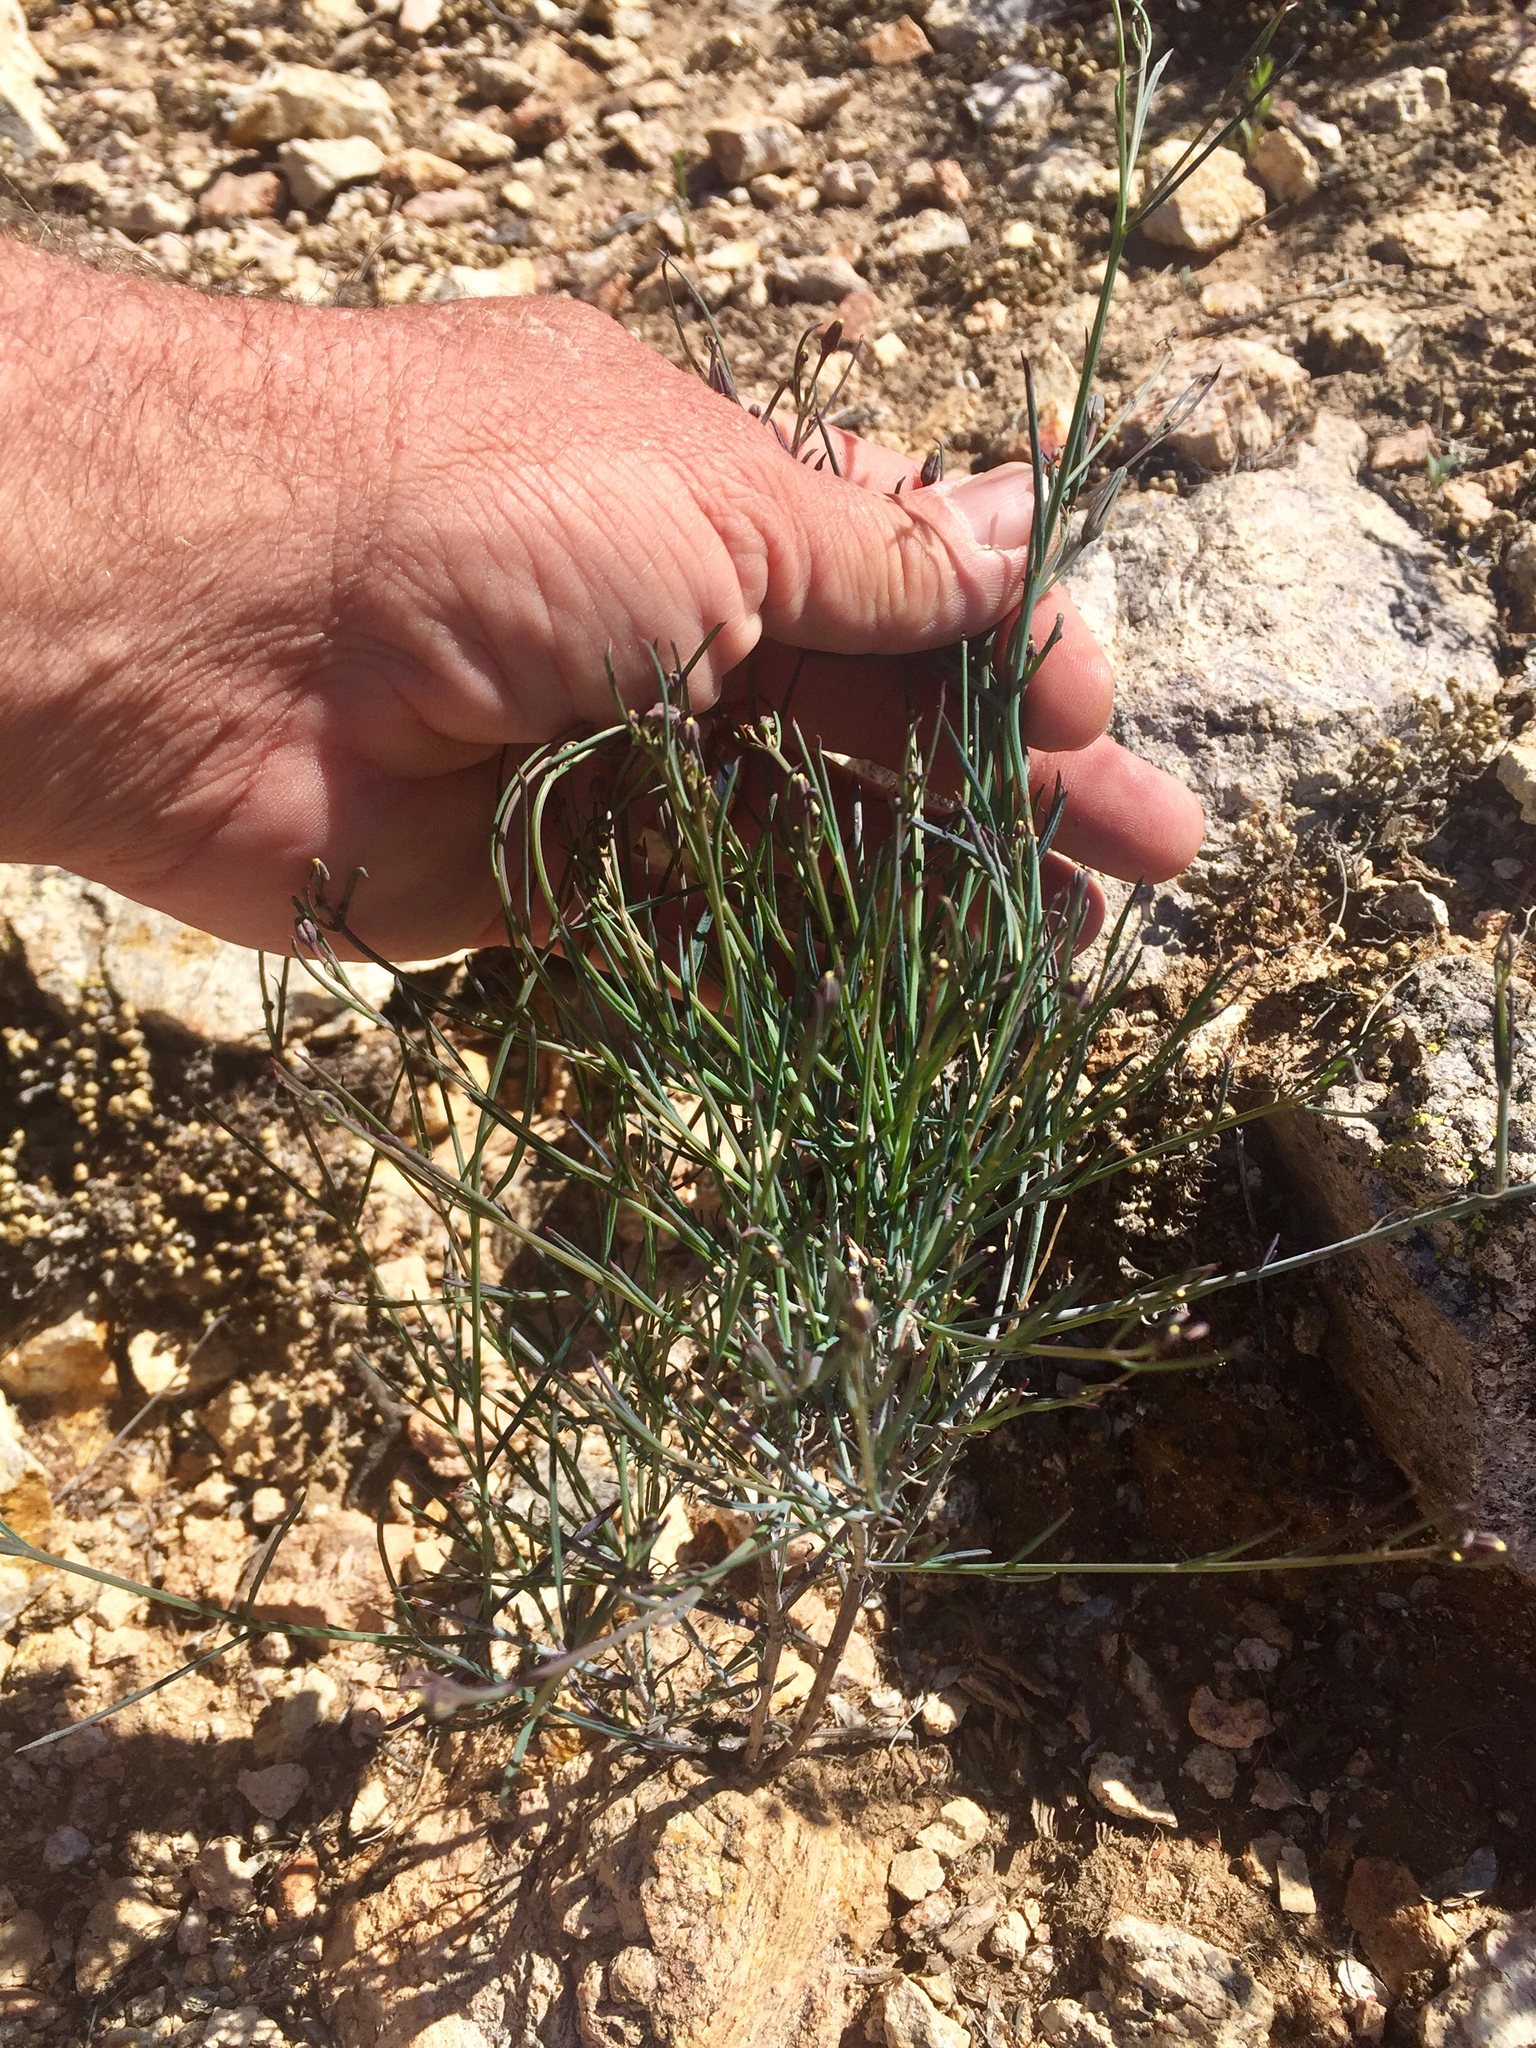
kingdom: Plantae
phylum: Tracheophyta
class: Magnoliopsida
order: Asterales
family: Asteraceae
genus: Porophyllum
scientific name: Porophyllum gracile
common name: Odora
